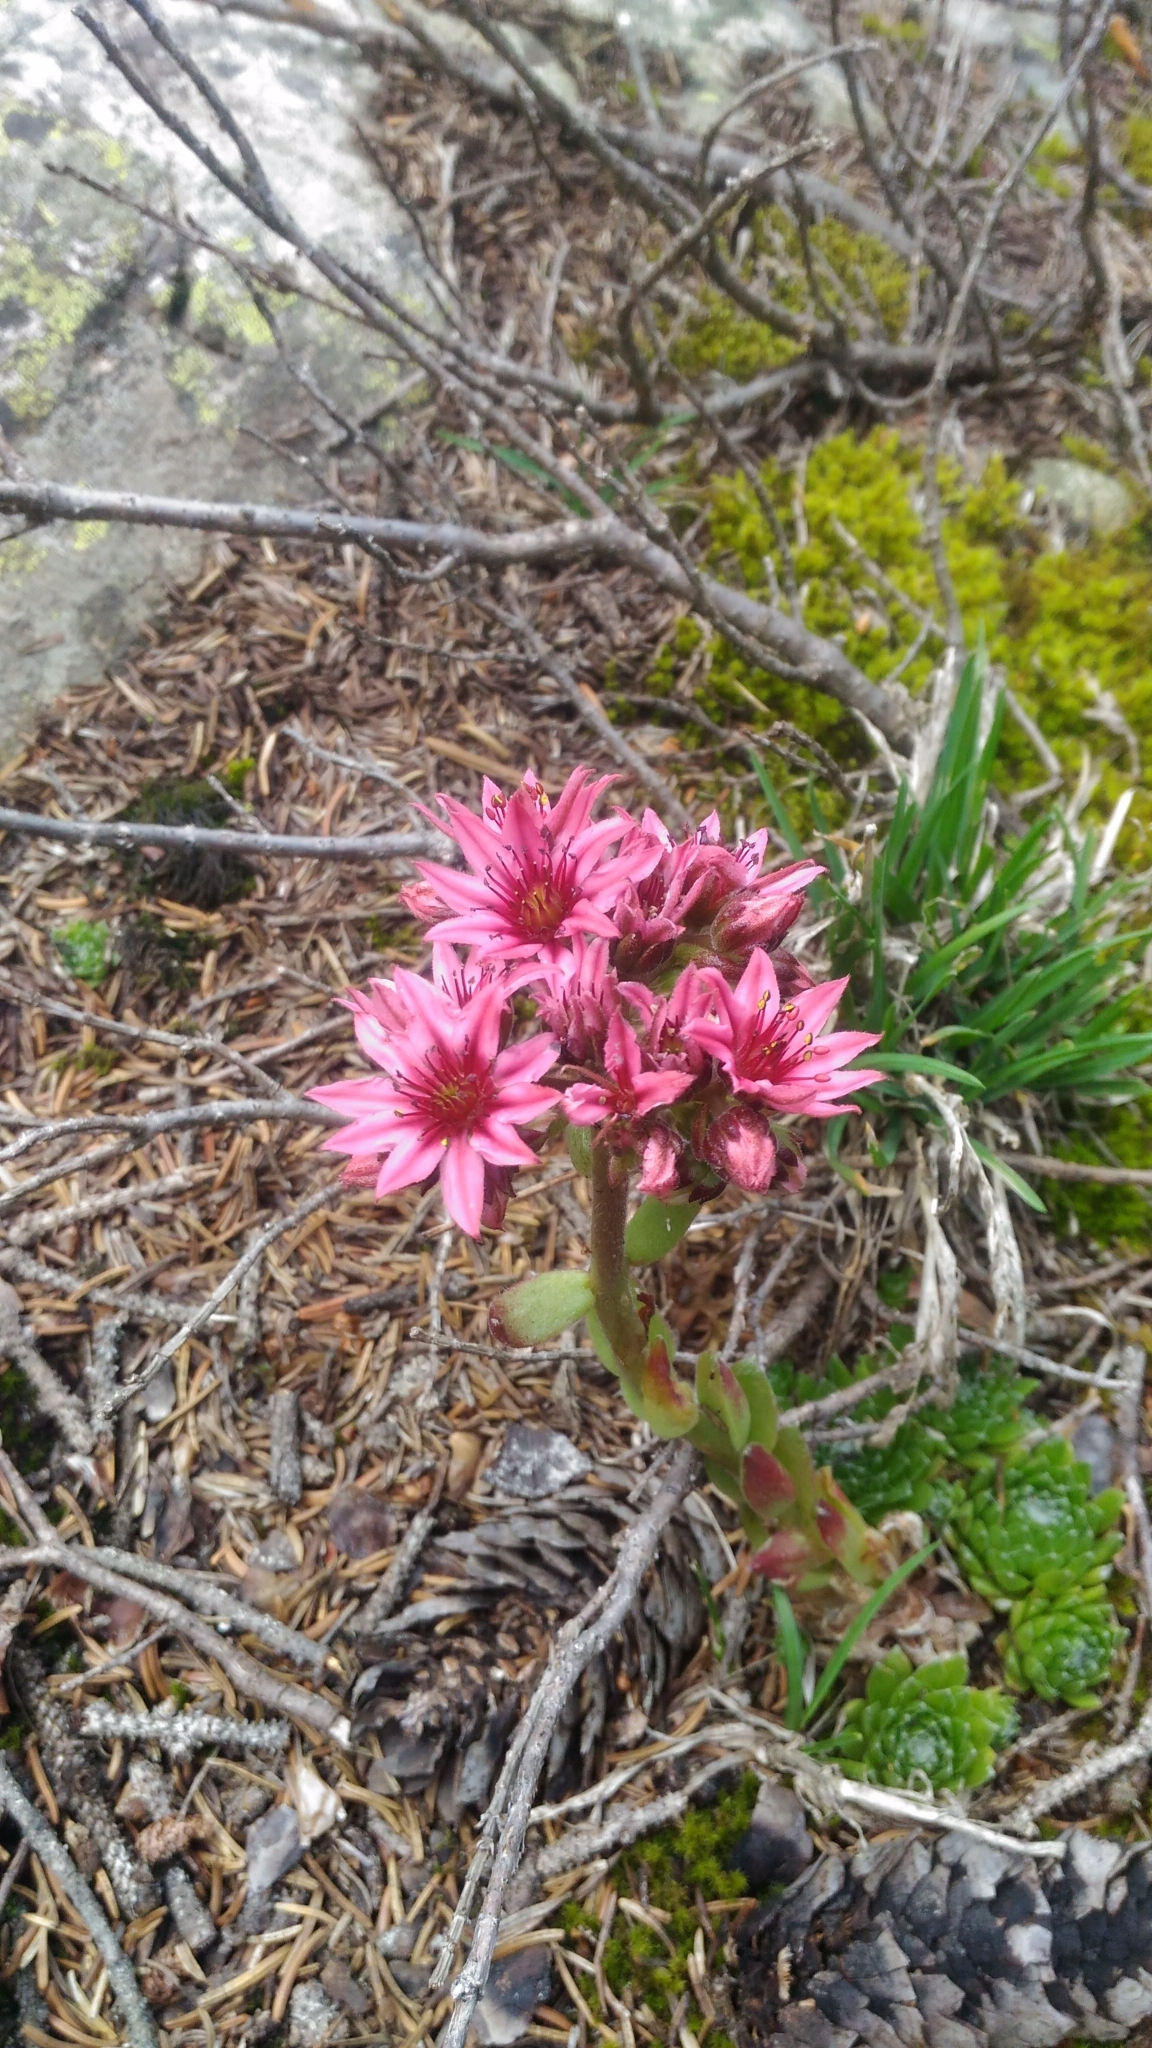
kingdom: Plantae
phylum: Tracheophyta
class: Magnoliopsida
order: Saxifragales
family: Crassulaceae
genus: Sempervivum
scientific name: Sempervivum arachnoideum
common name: Cobweb house-leek
